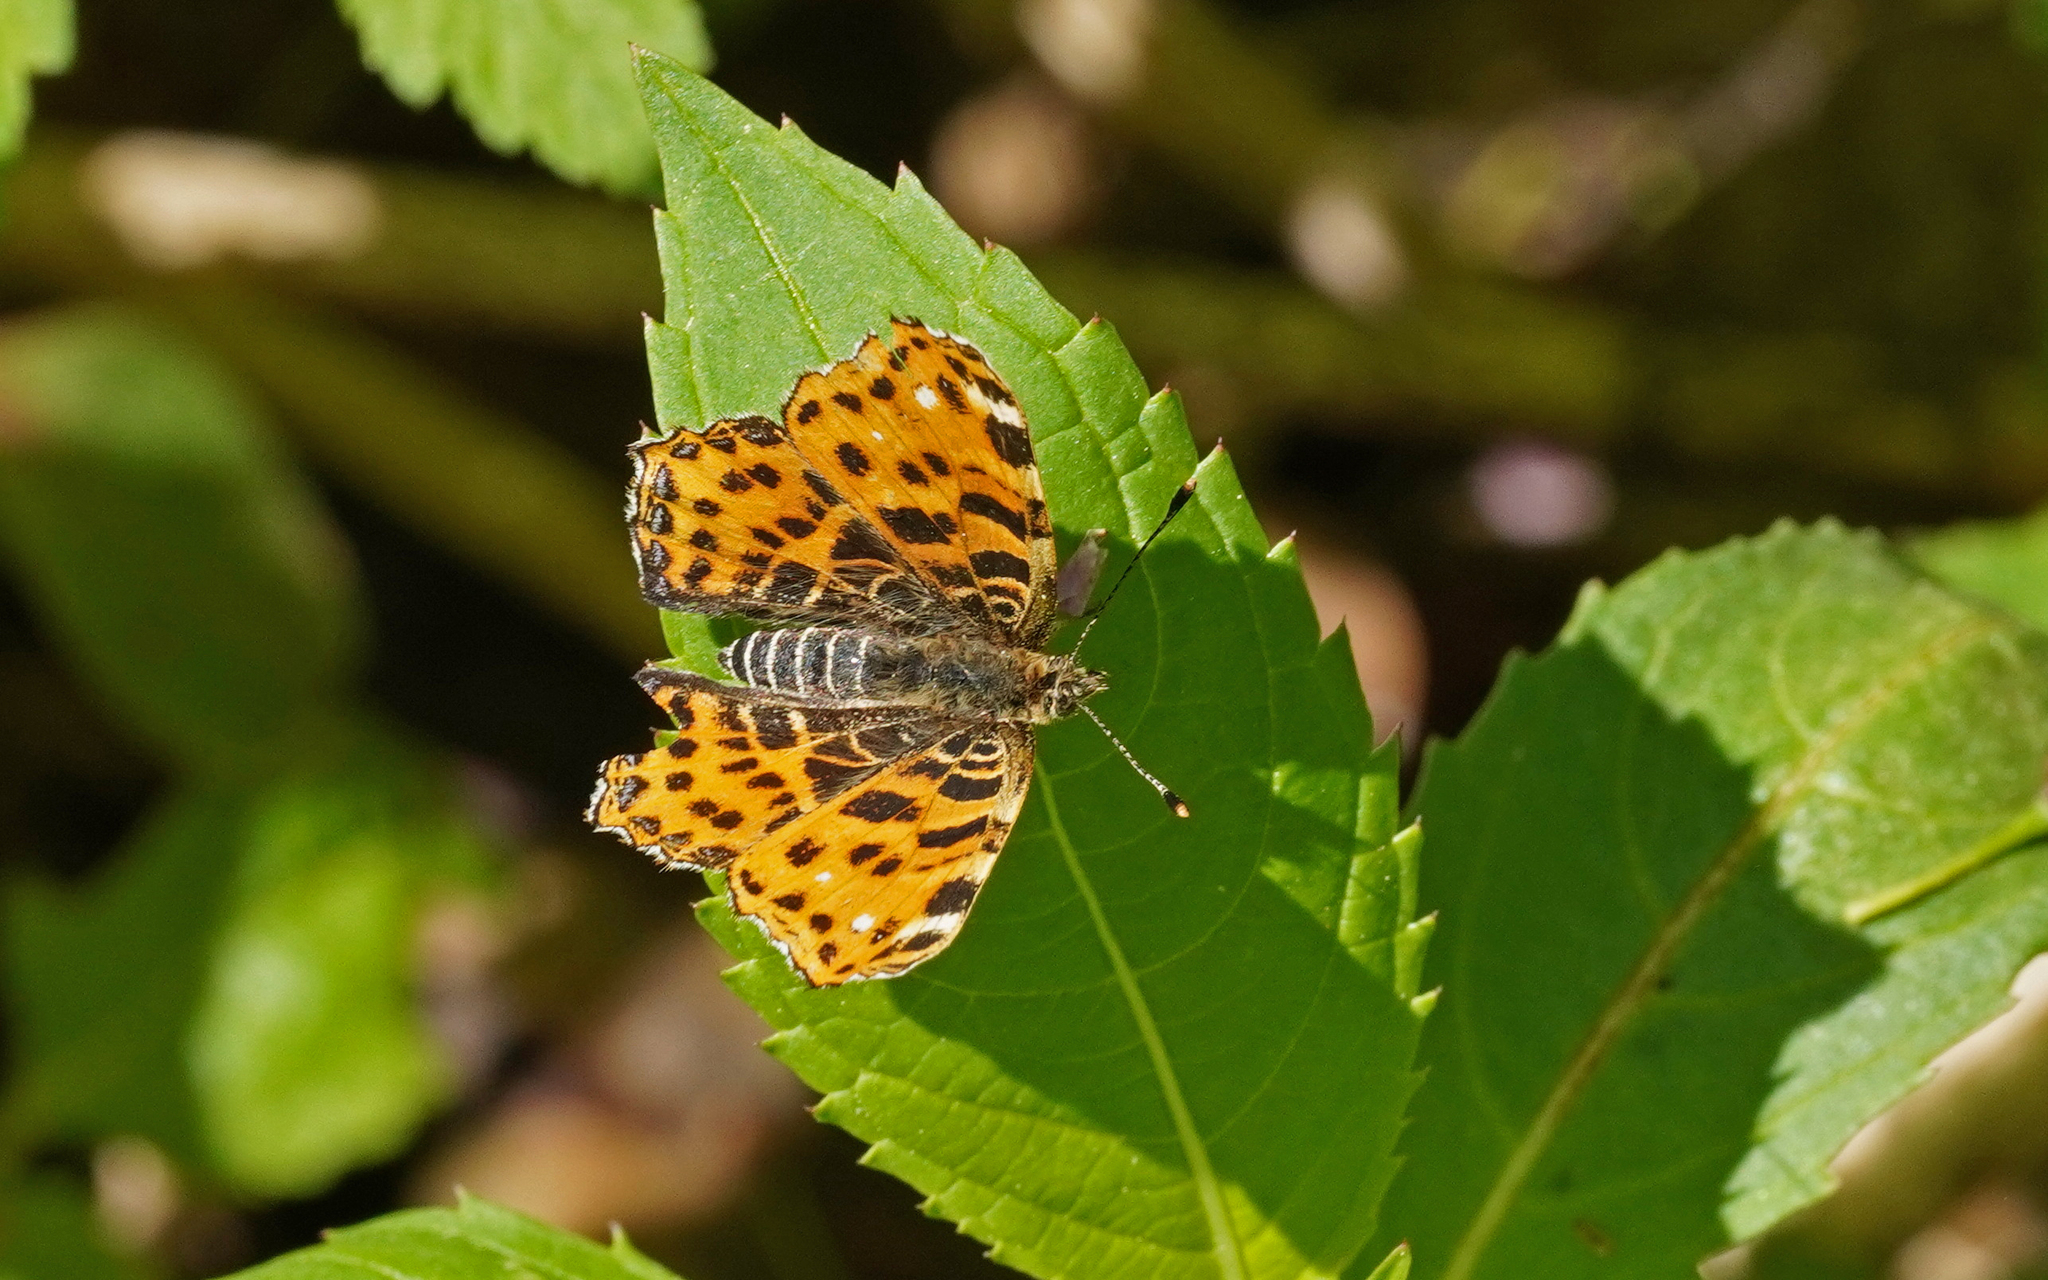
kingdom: Animalia
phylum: Arthropoda
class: Insecta
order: Lepidoptera
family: Nymphalidae
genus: Araschnia
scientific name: Araschnia levana
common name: Map butterfly
